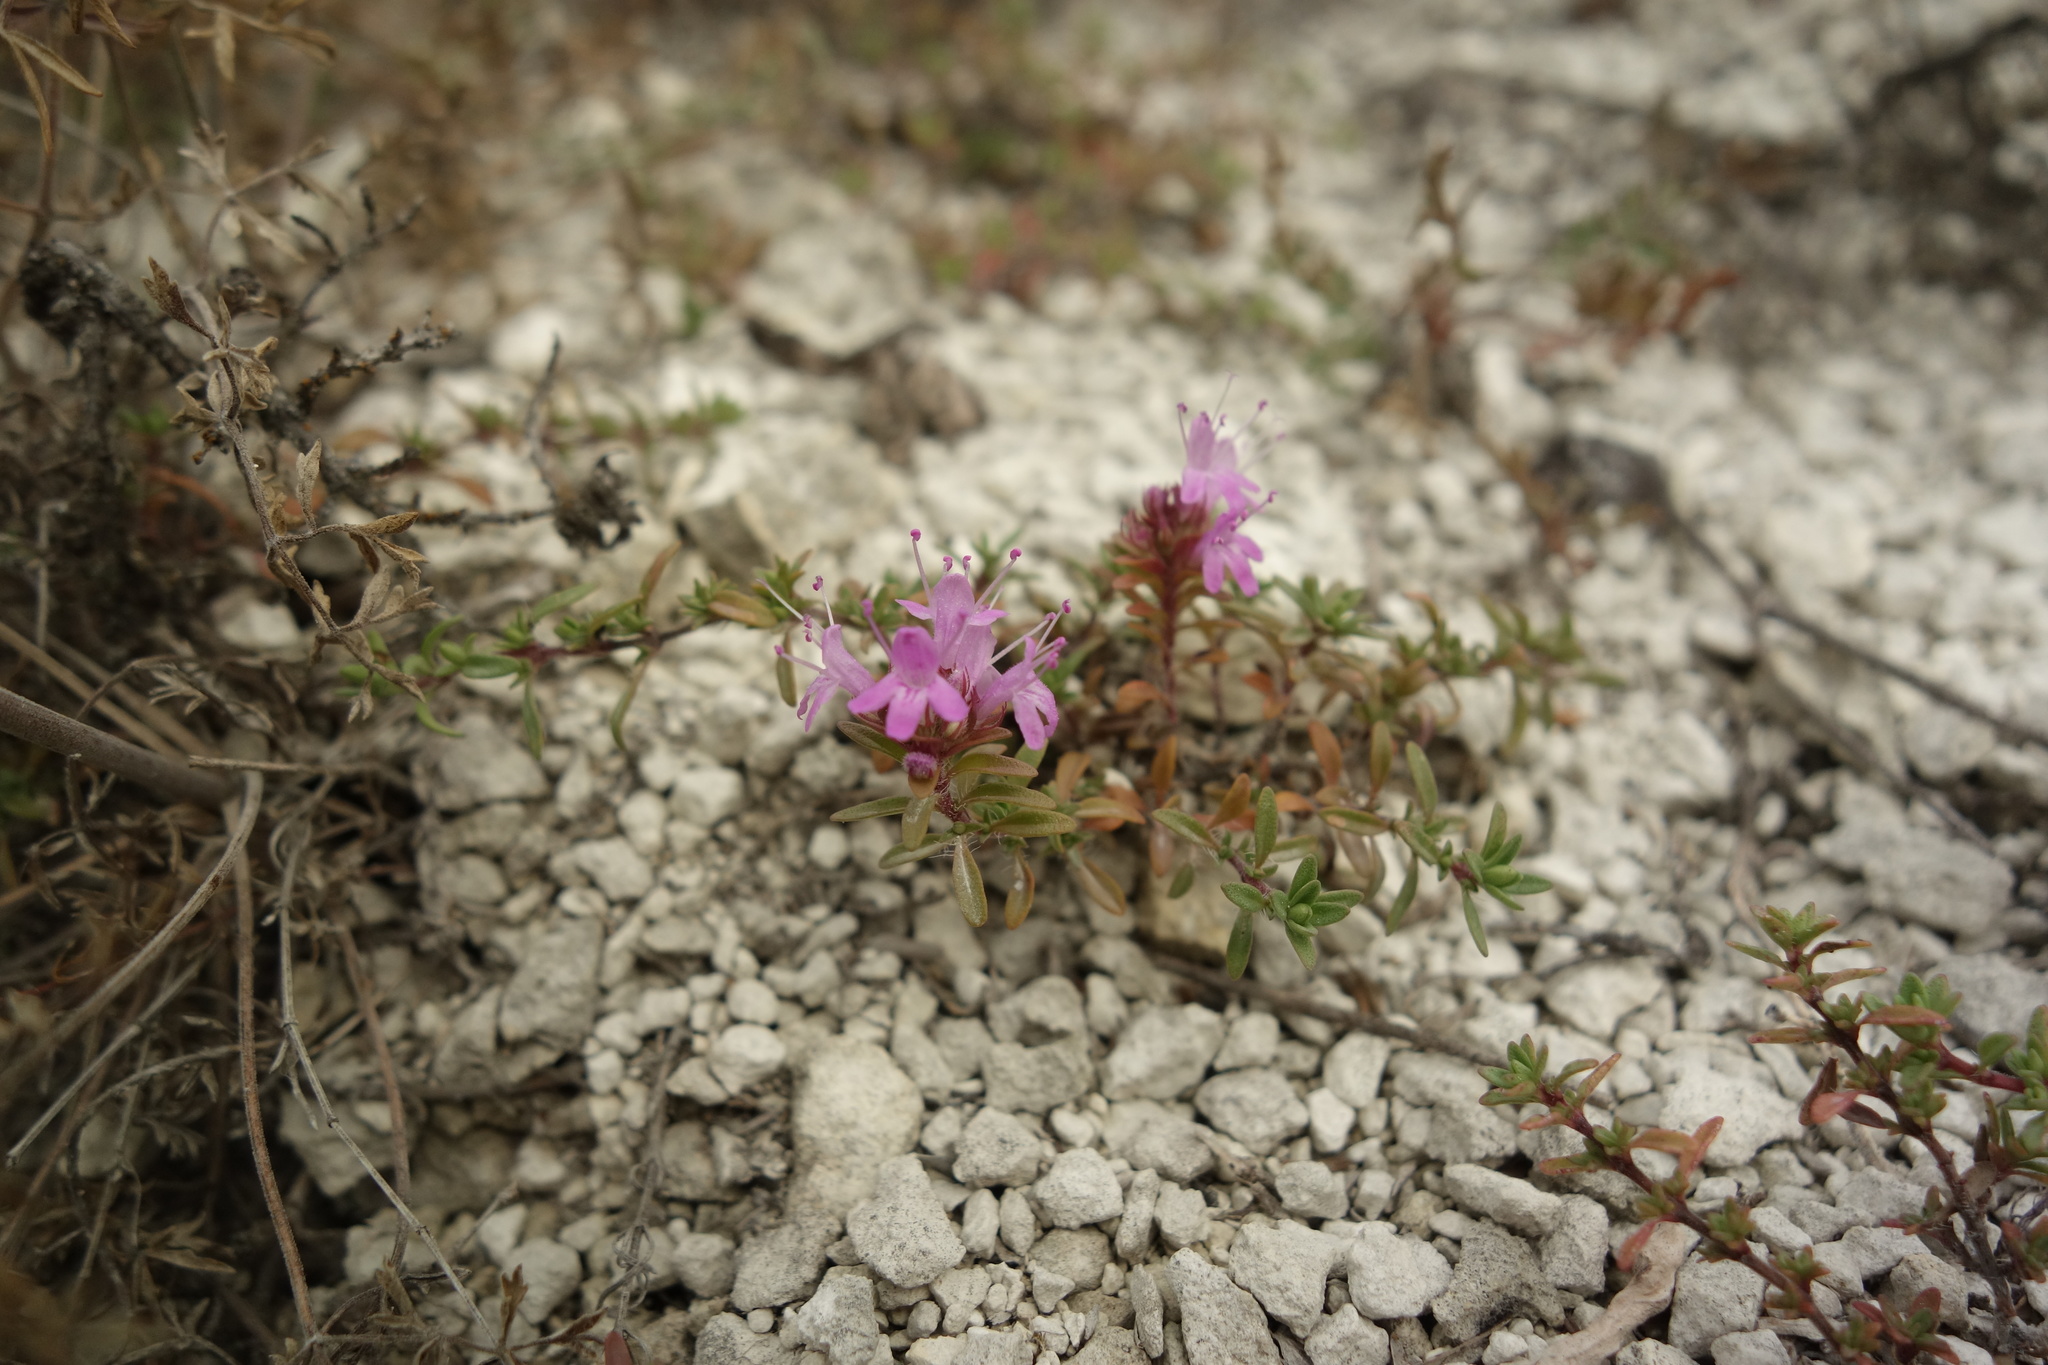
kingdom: Plantae
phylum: Tracheophyta
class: Magnoliopsida
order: Lamiales
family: Lamiaceae
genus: Thymus
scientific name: Thymus calcareus
